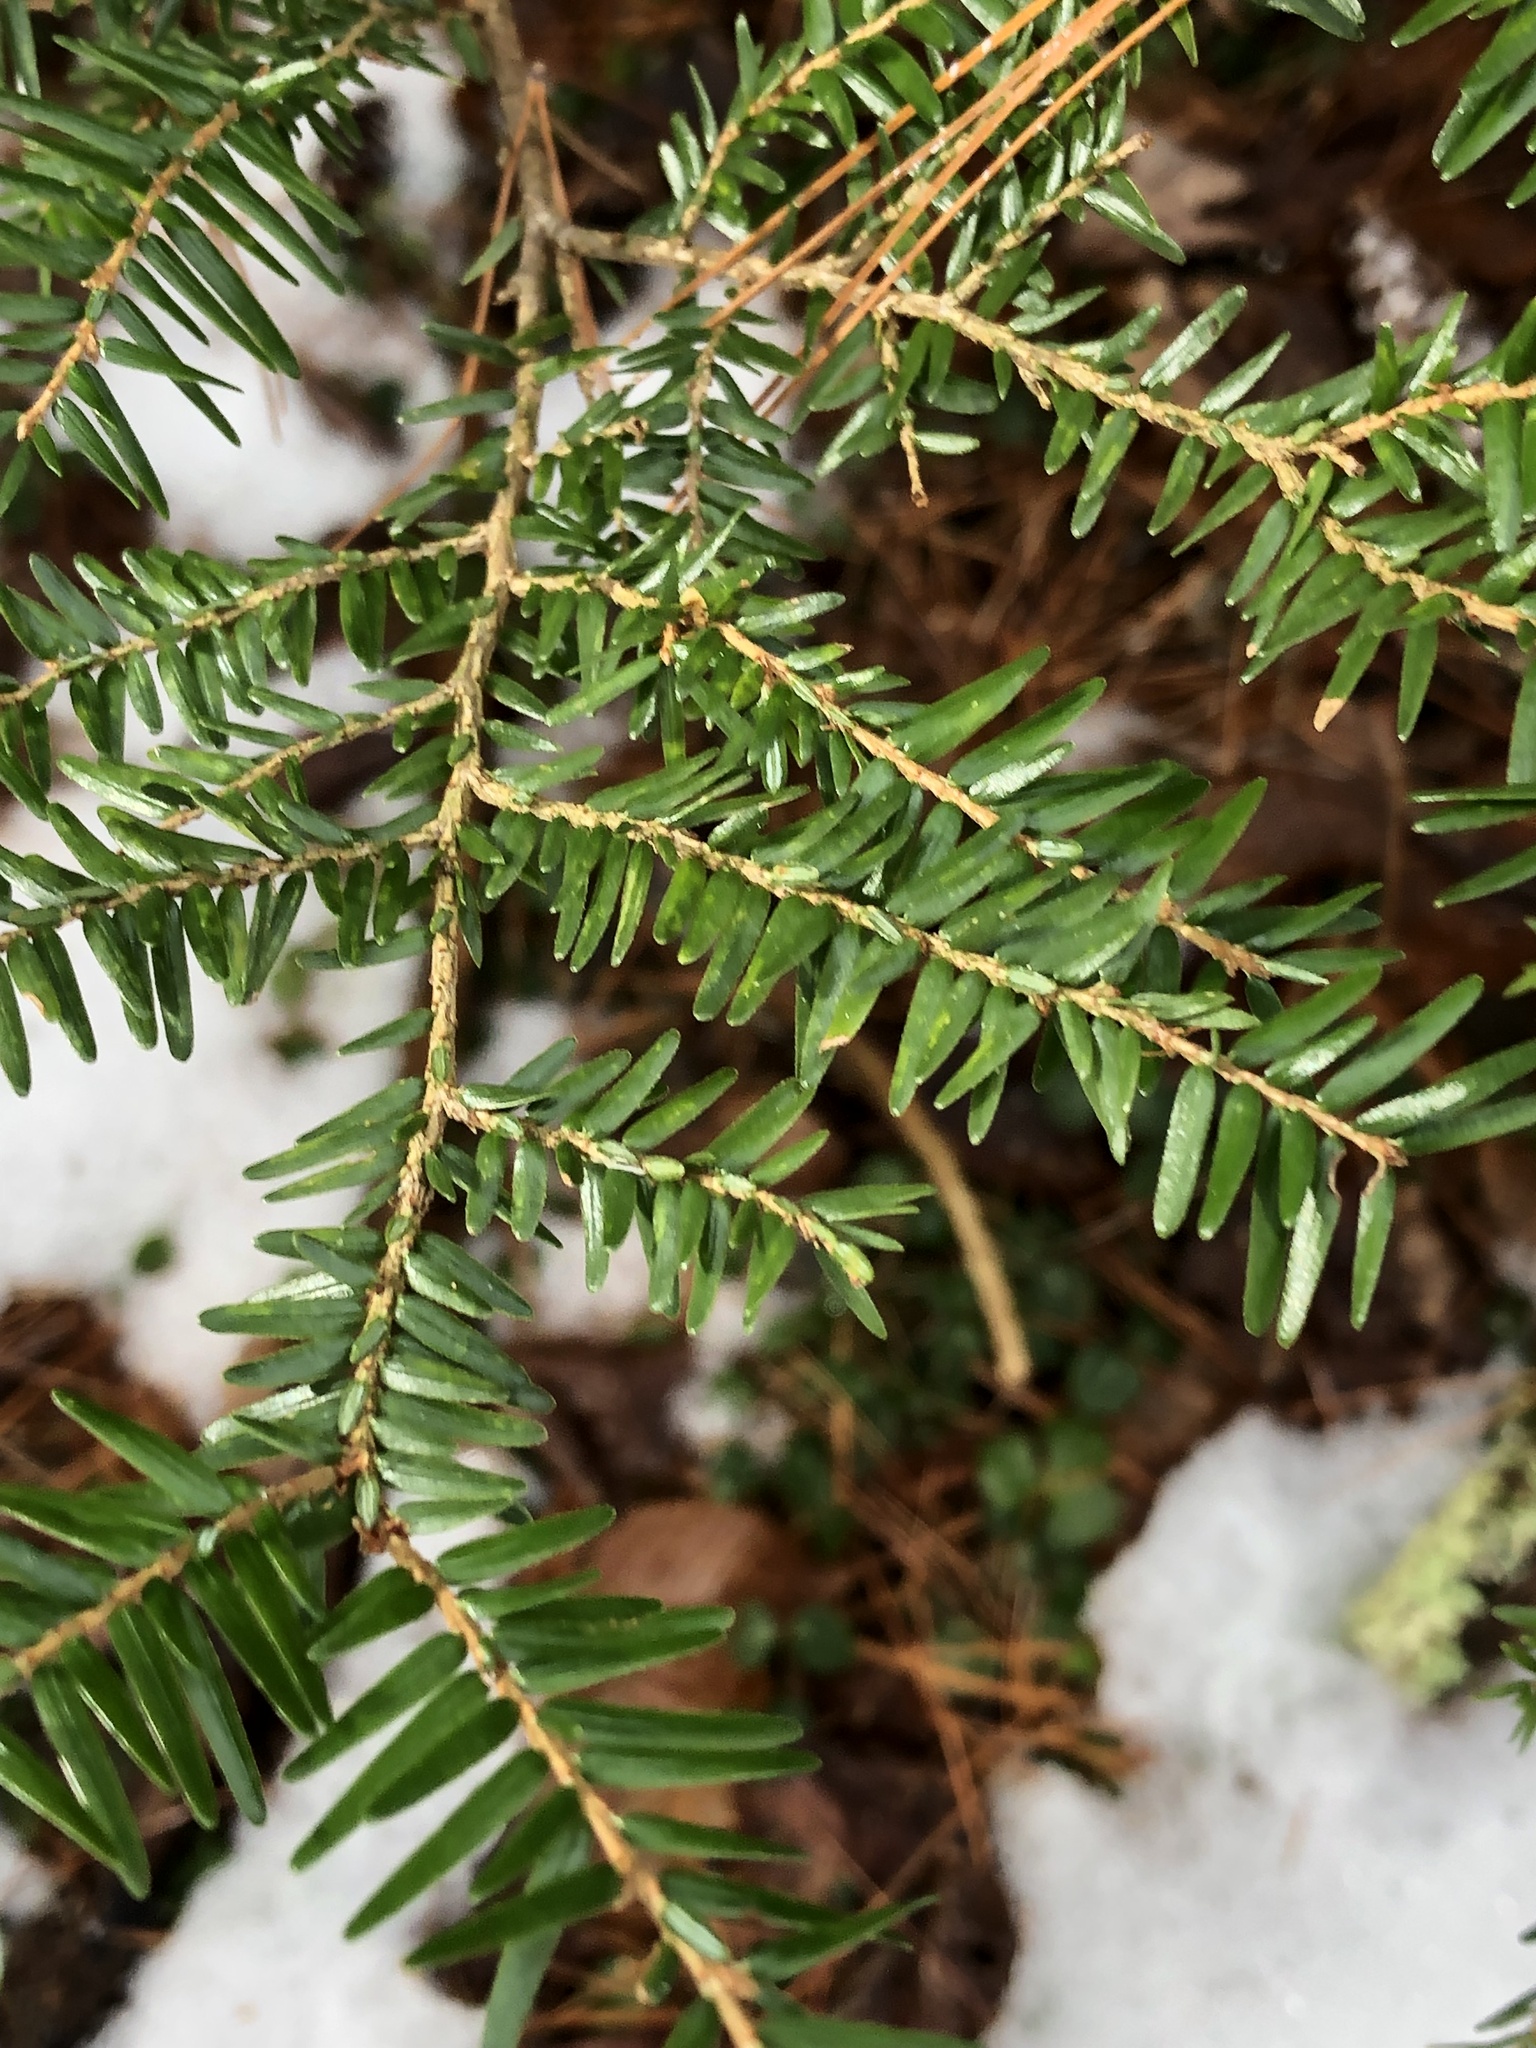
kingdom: Plantae
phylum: Tracheophyta
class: Pinopsida
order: Pinales
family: Pinaceae
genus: Tsuga
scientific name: Tsuga canadensis
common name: Eastern hemlock
